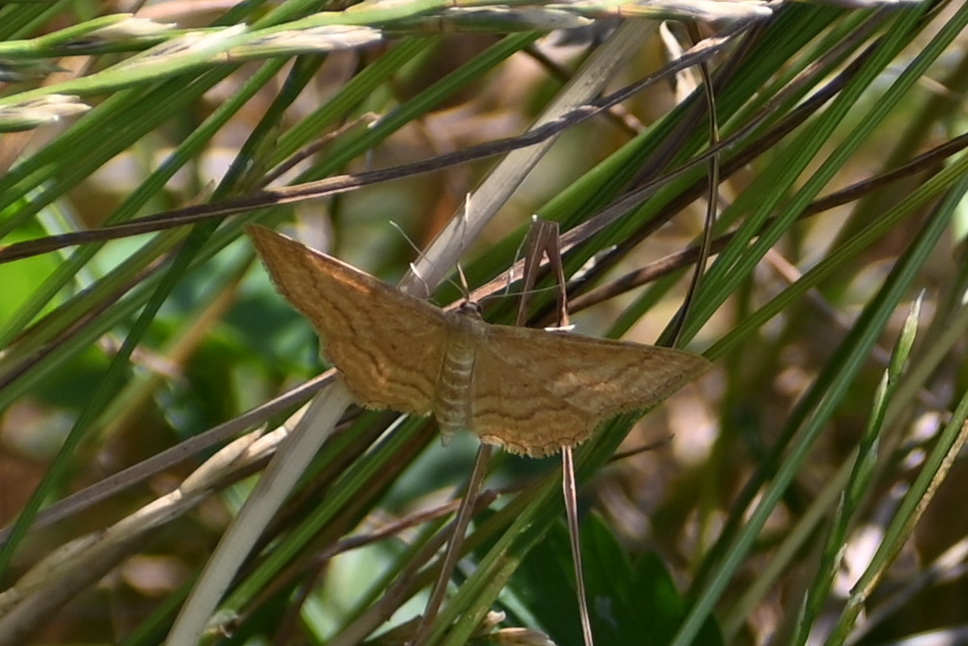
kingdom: Animalia
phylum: Arthropoda
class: Insecta
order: Lepidoptera
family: Geometridae
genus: Idaea
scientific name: Idaea ochrata
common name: Bright wave
